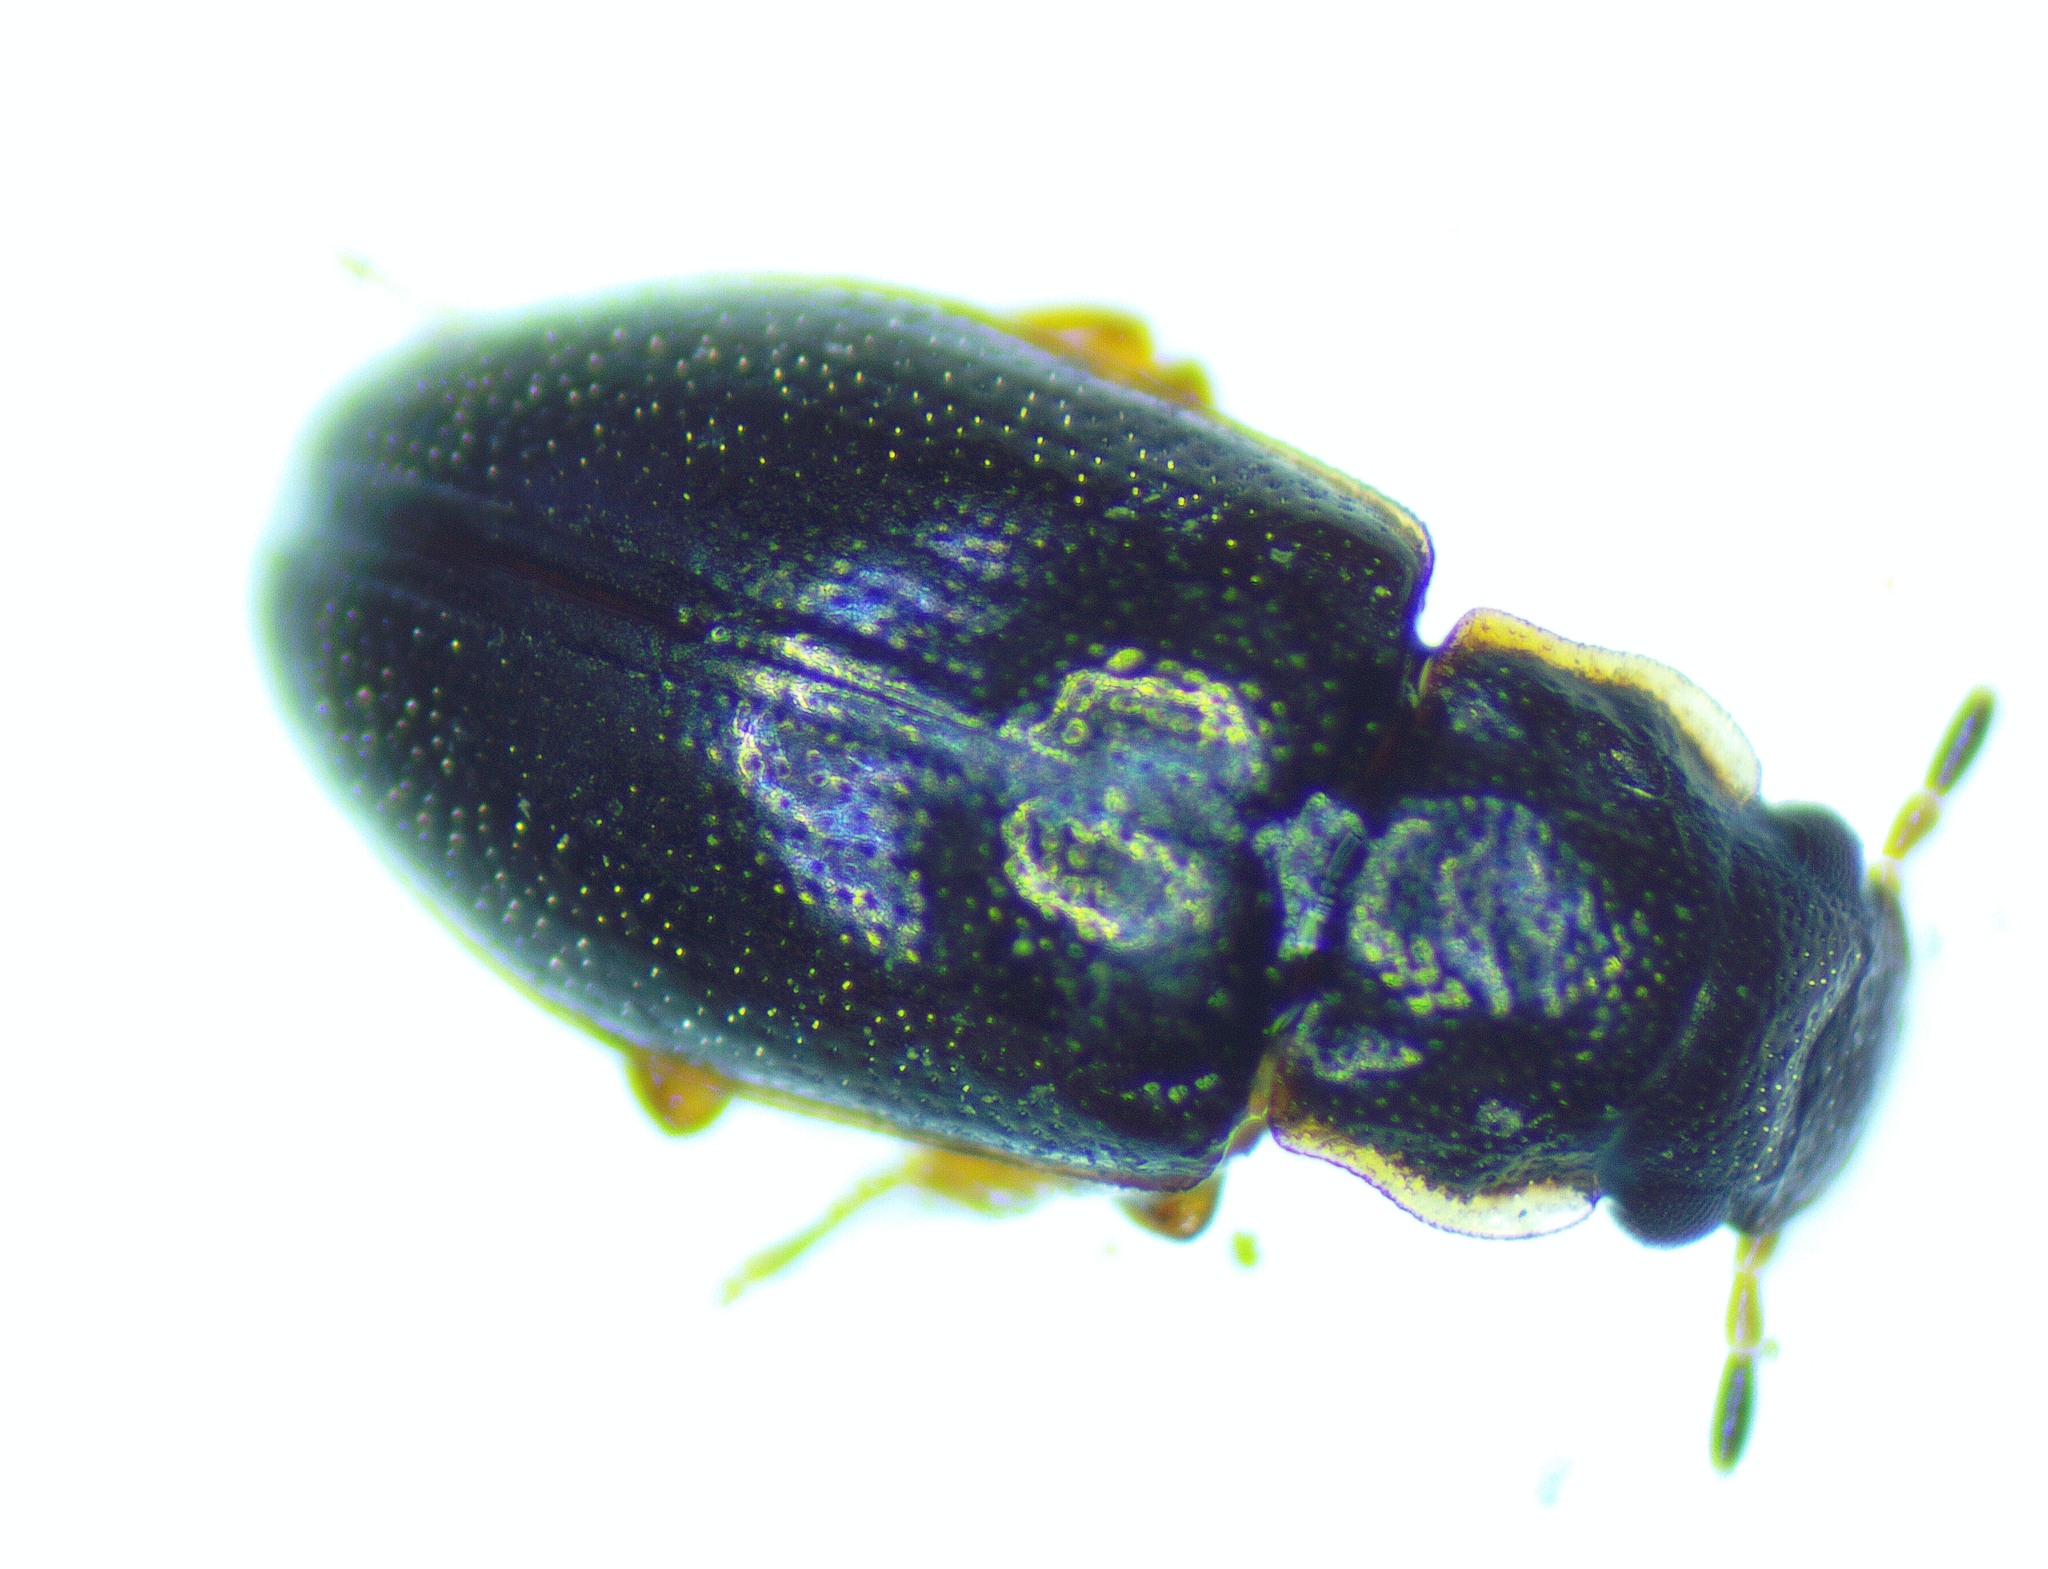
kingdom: Animalia
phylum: Arthropoda
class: Insecta
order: Coleoptera
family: Hydrophilidae
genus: Horelophus
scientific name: Horelophus walkeri
